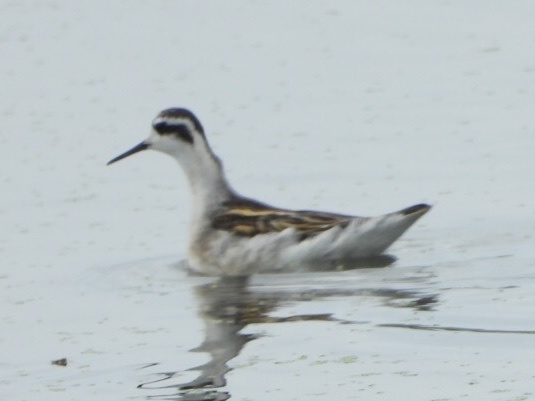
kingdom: Animalia
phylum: Chordata
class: Aves
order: Charadriiformes
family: Scolopacidae
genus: Phalaropus
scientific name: Phalaropus lobatus
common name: Red-necked phalarope
